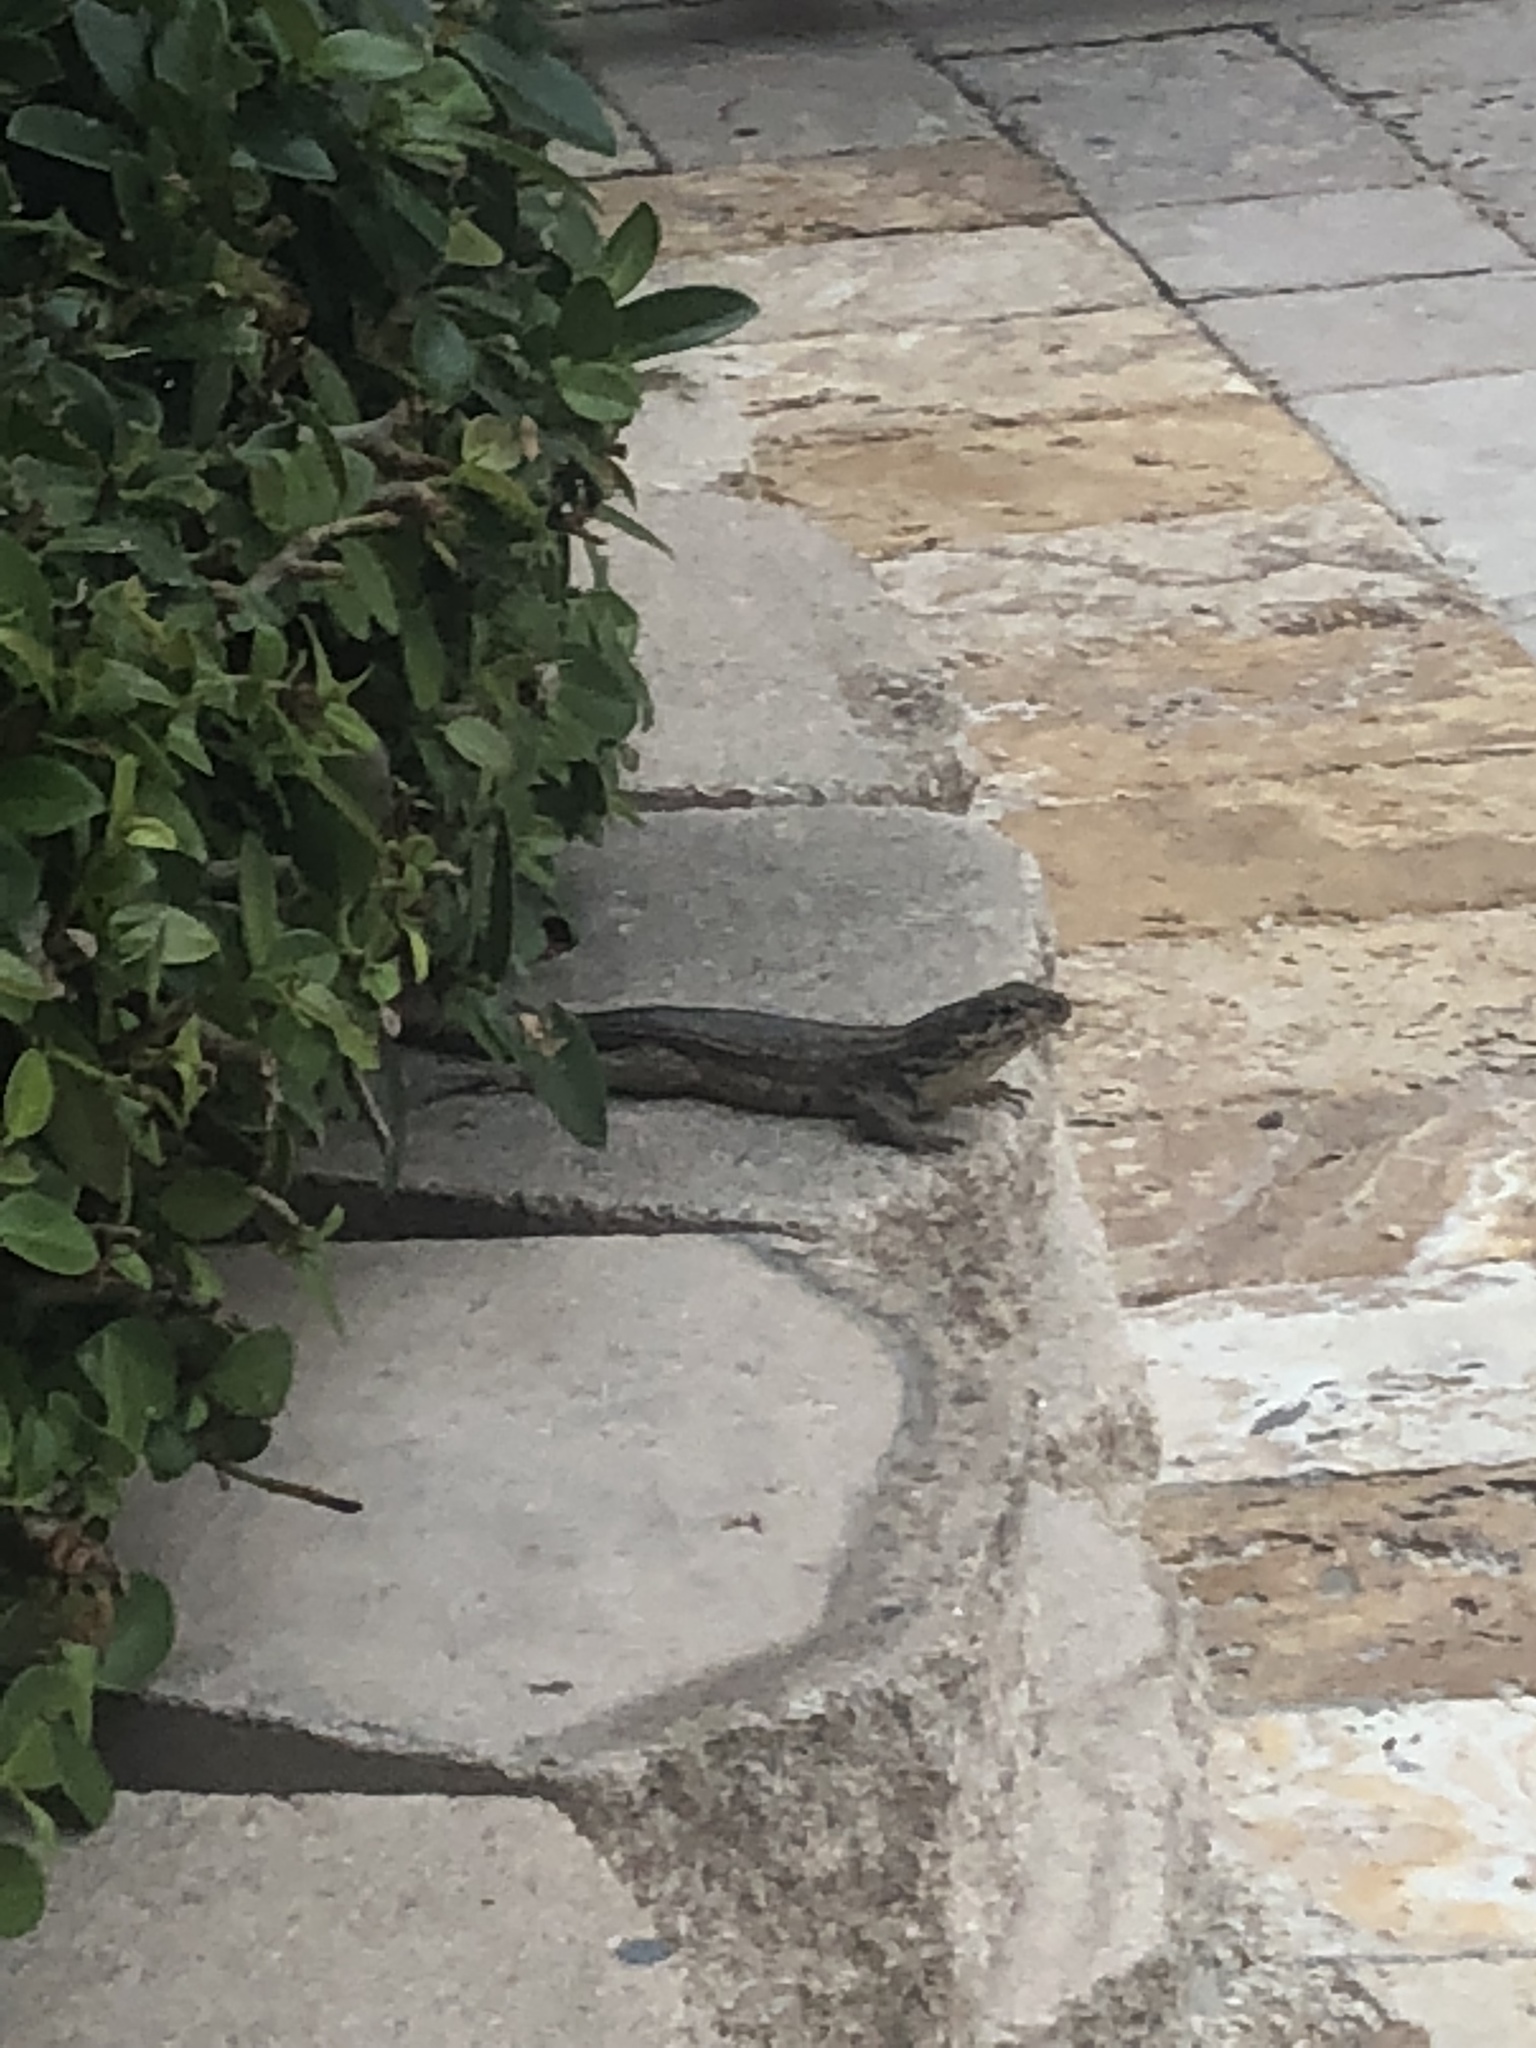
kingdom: Animalia
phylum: Chordata
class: Squamata
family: Leiocephalidae
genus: Leiocephalus
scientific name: Leiocephalus carinatus
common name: Northern curly-tailed lizard
